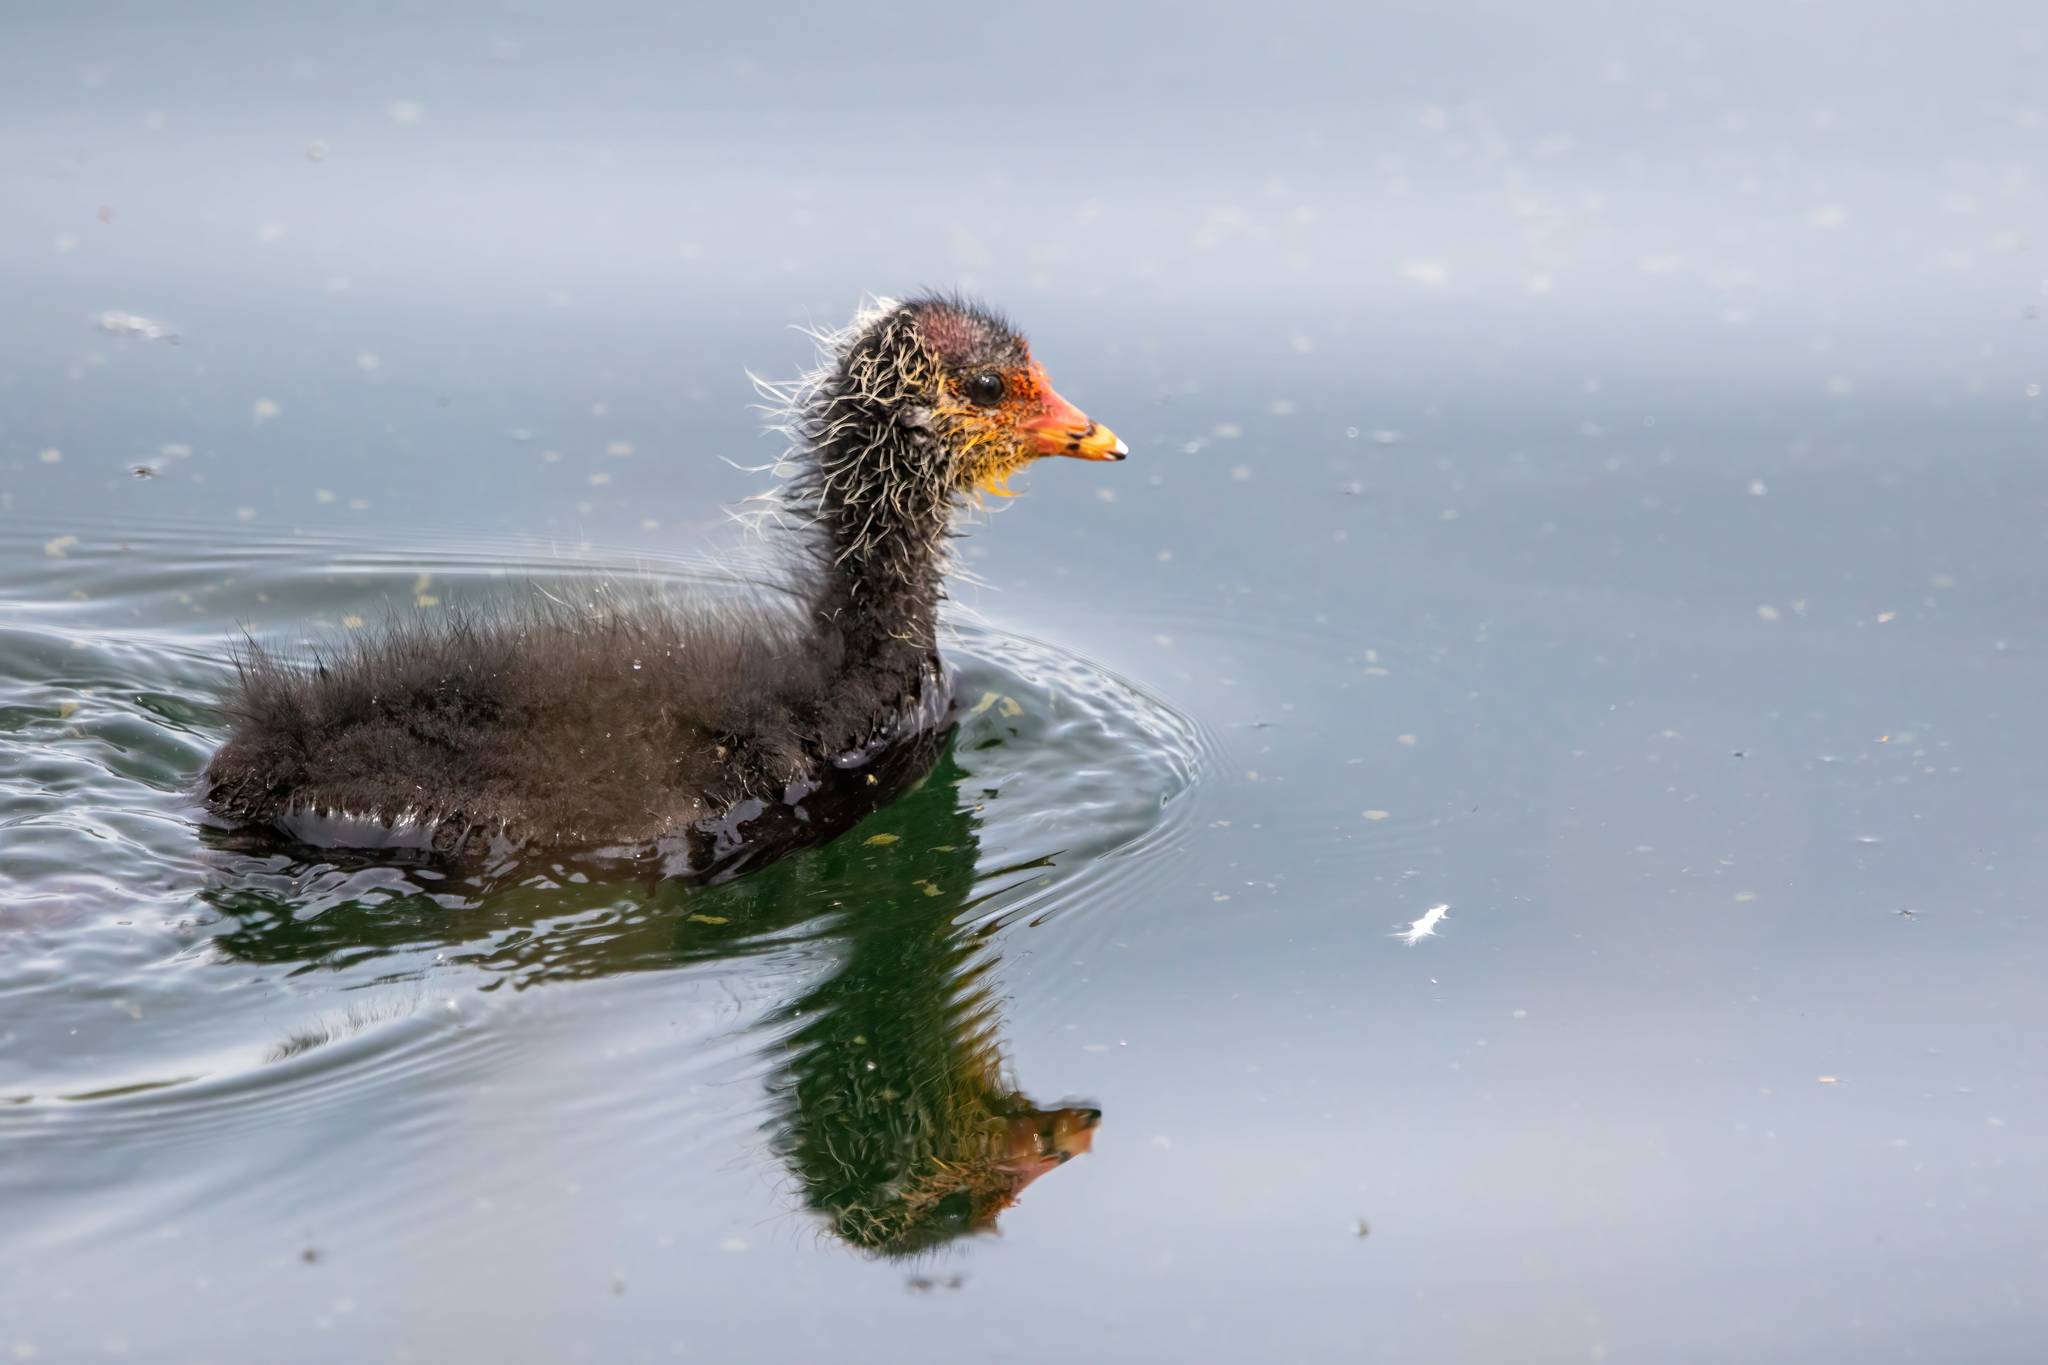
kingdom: Animalia
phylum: Chordata
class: Aves
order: Gruiformes
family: Rallidae
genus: Fulica
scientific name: Fulica atra
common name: Eurasian coot
